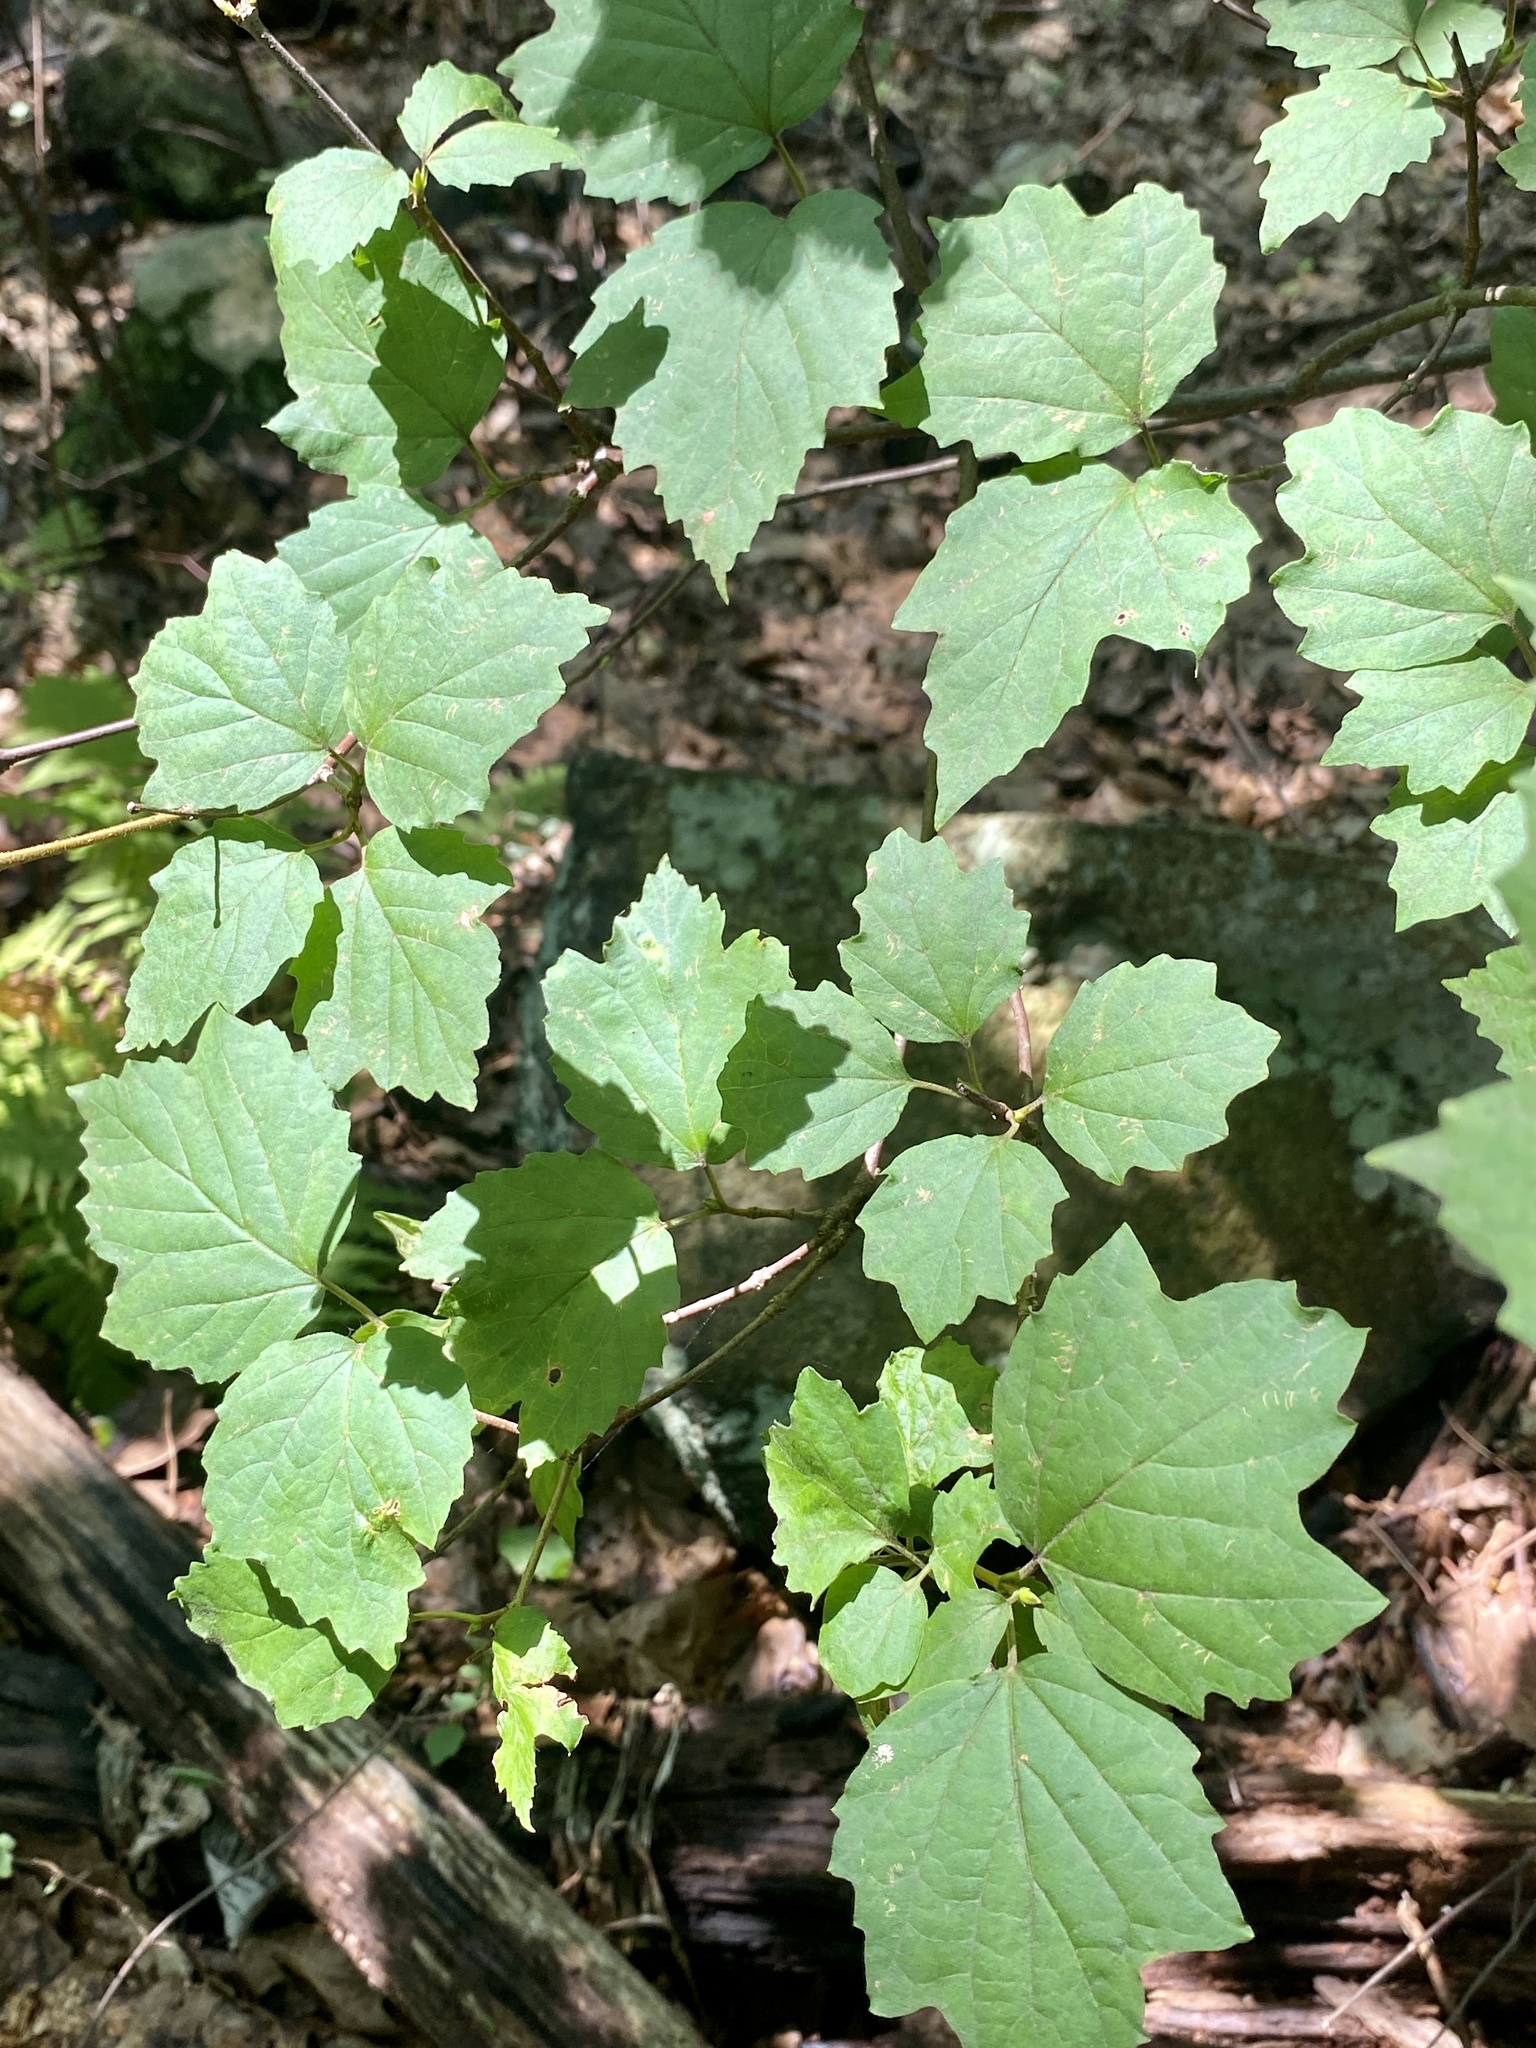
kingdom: Plantae
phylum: Tracheophyta
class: Magnoliopsida
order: Dipsacales
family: Viburnaceae
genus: Viburnum
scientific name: Viburnum acerifolium
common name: Dockmackie
